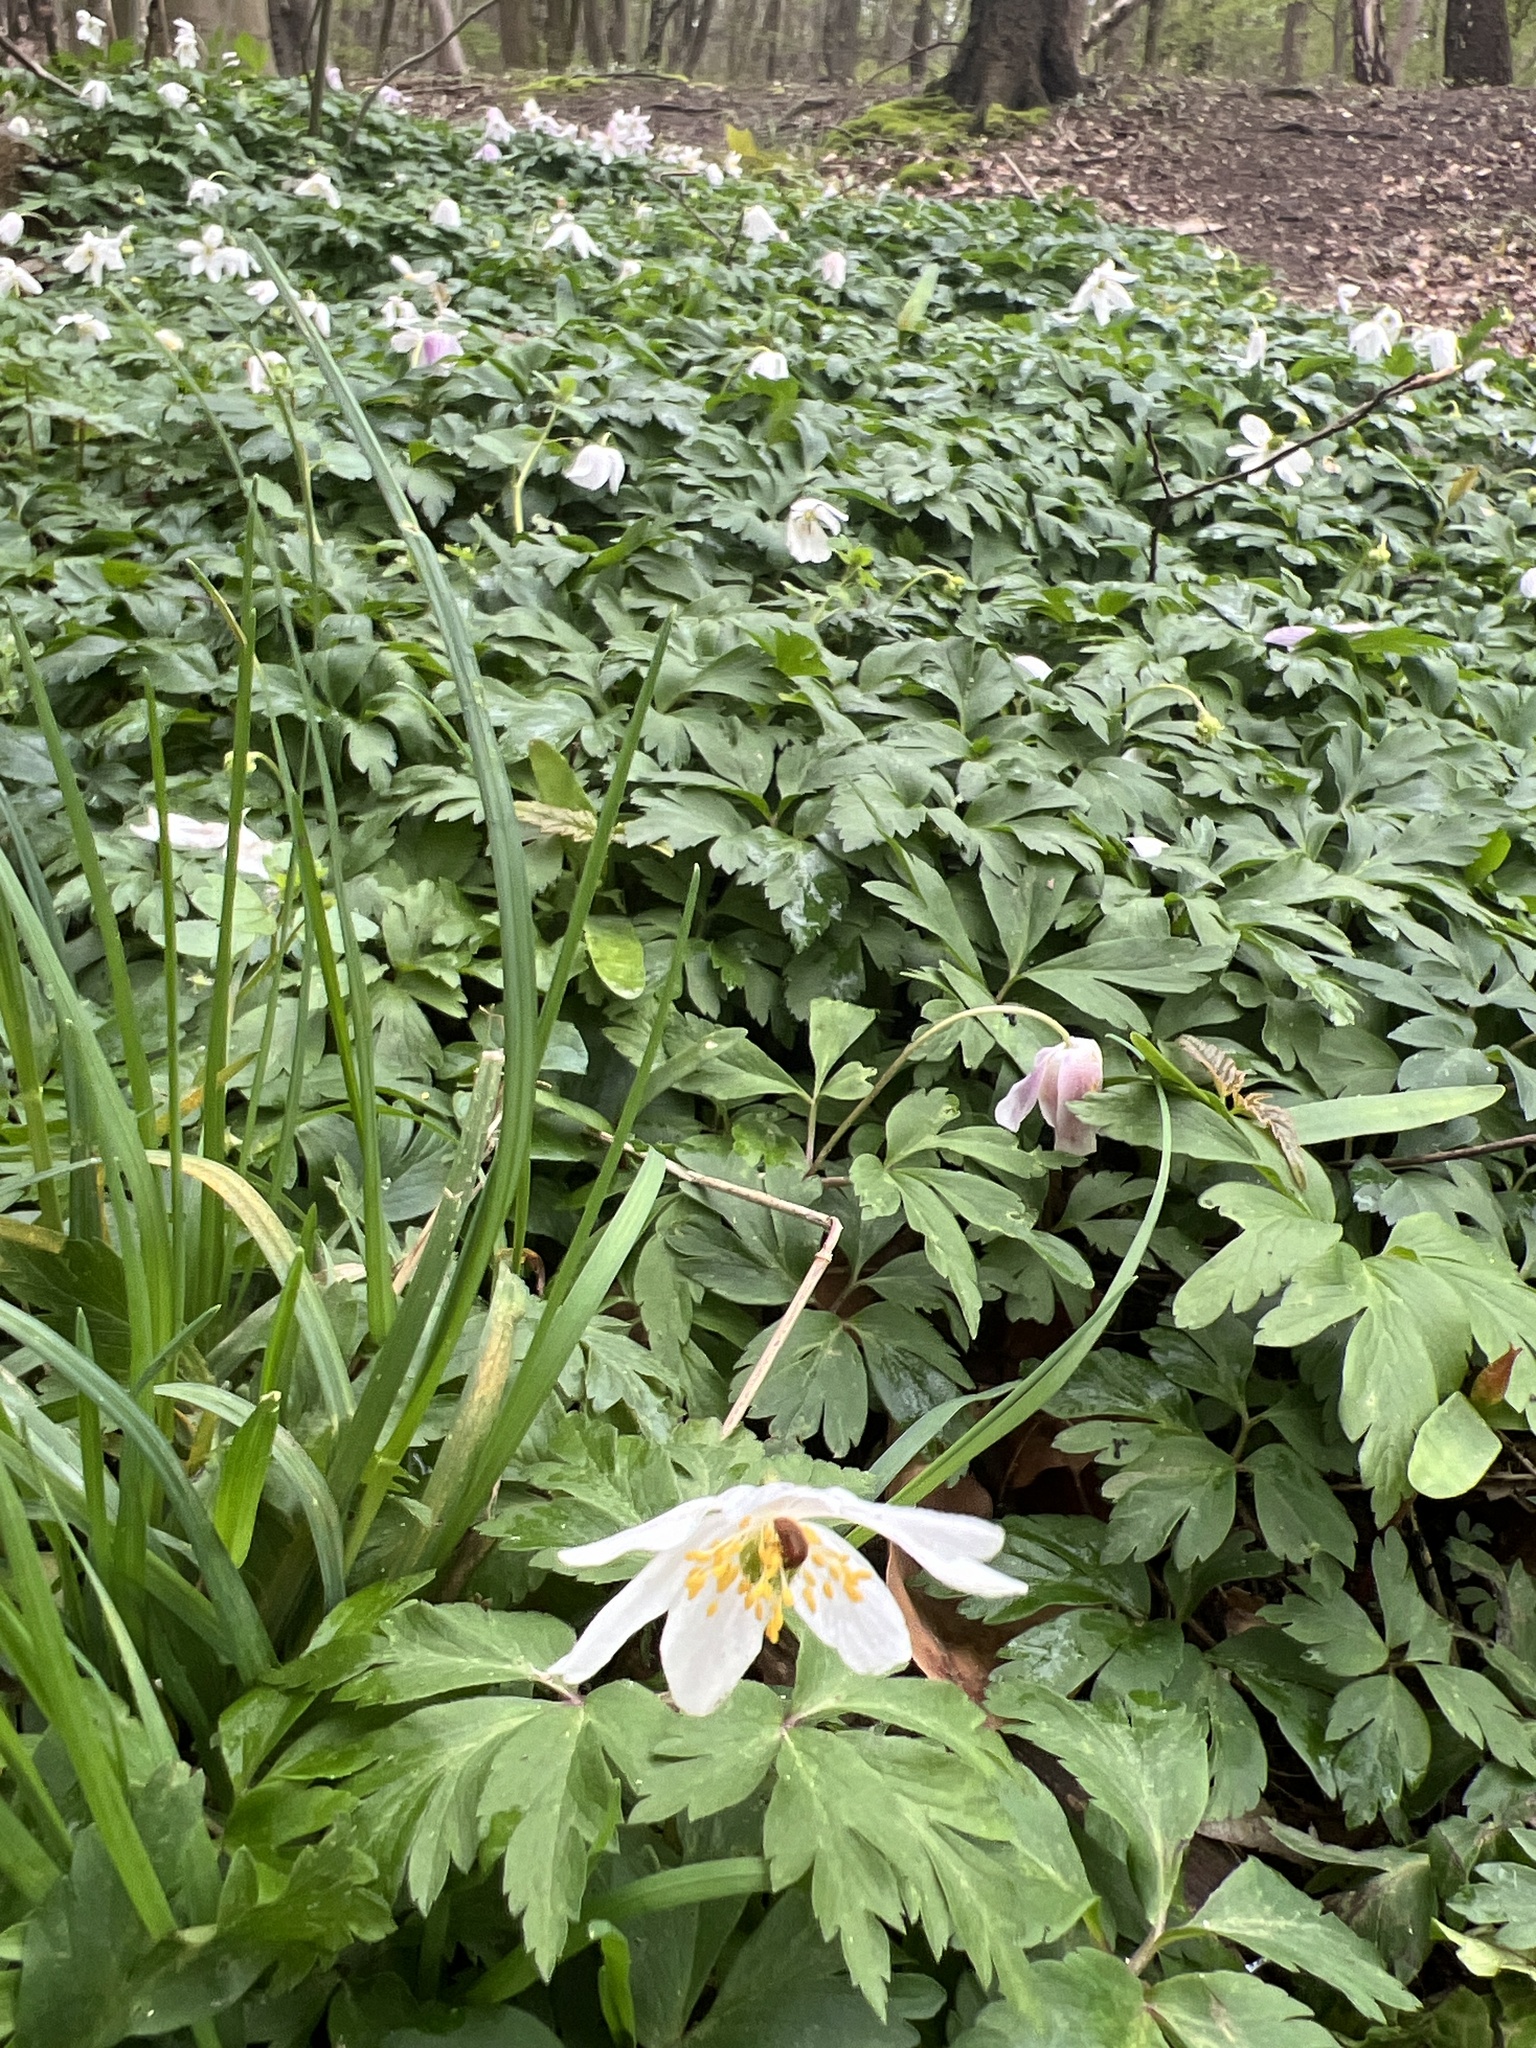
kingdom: Plantae
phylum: Tracheophyta
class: Magnoliopsida
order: Ranunculales
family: Ranunculaceae
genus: Anemone
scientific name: Anemone nemorosa
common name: Wood anemone
